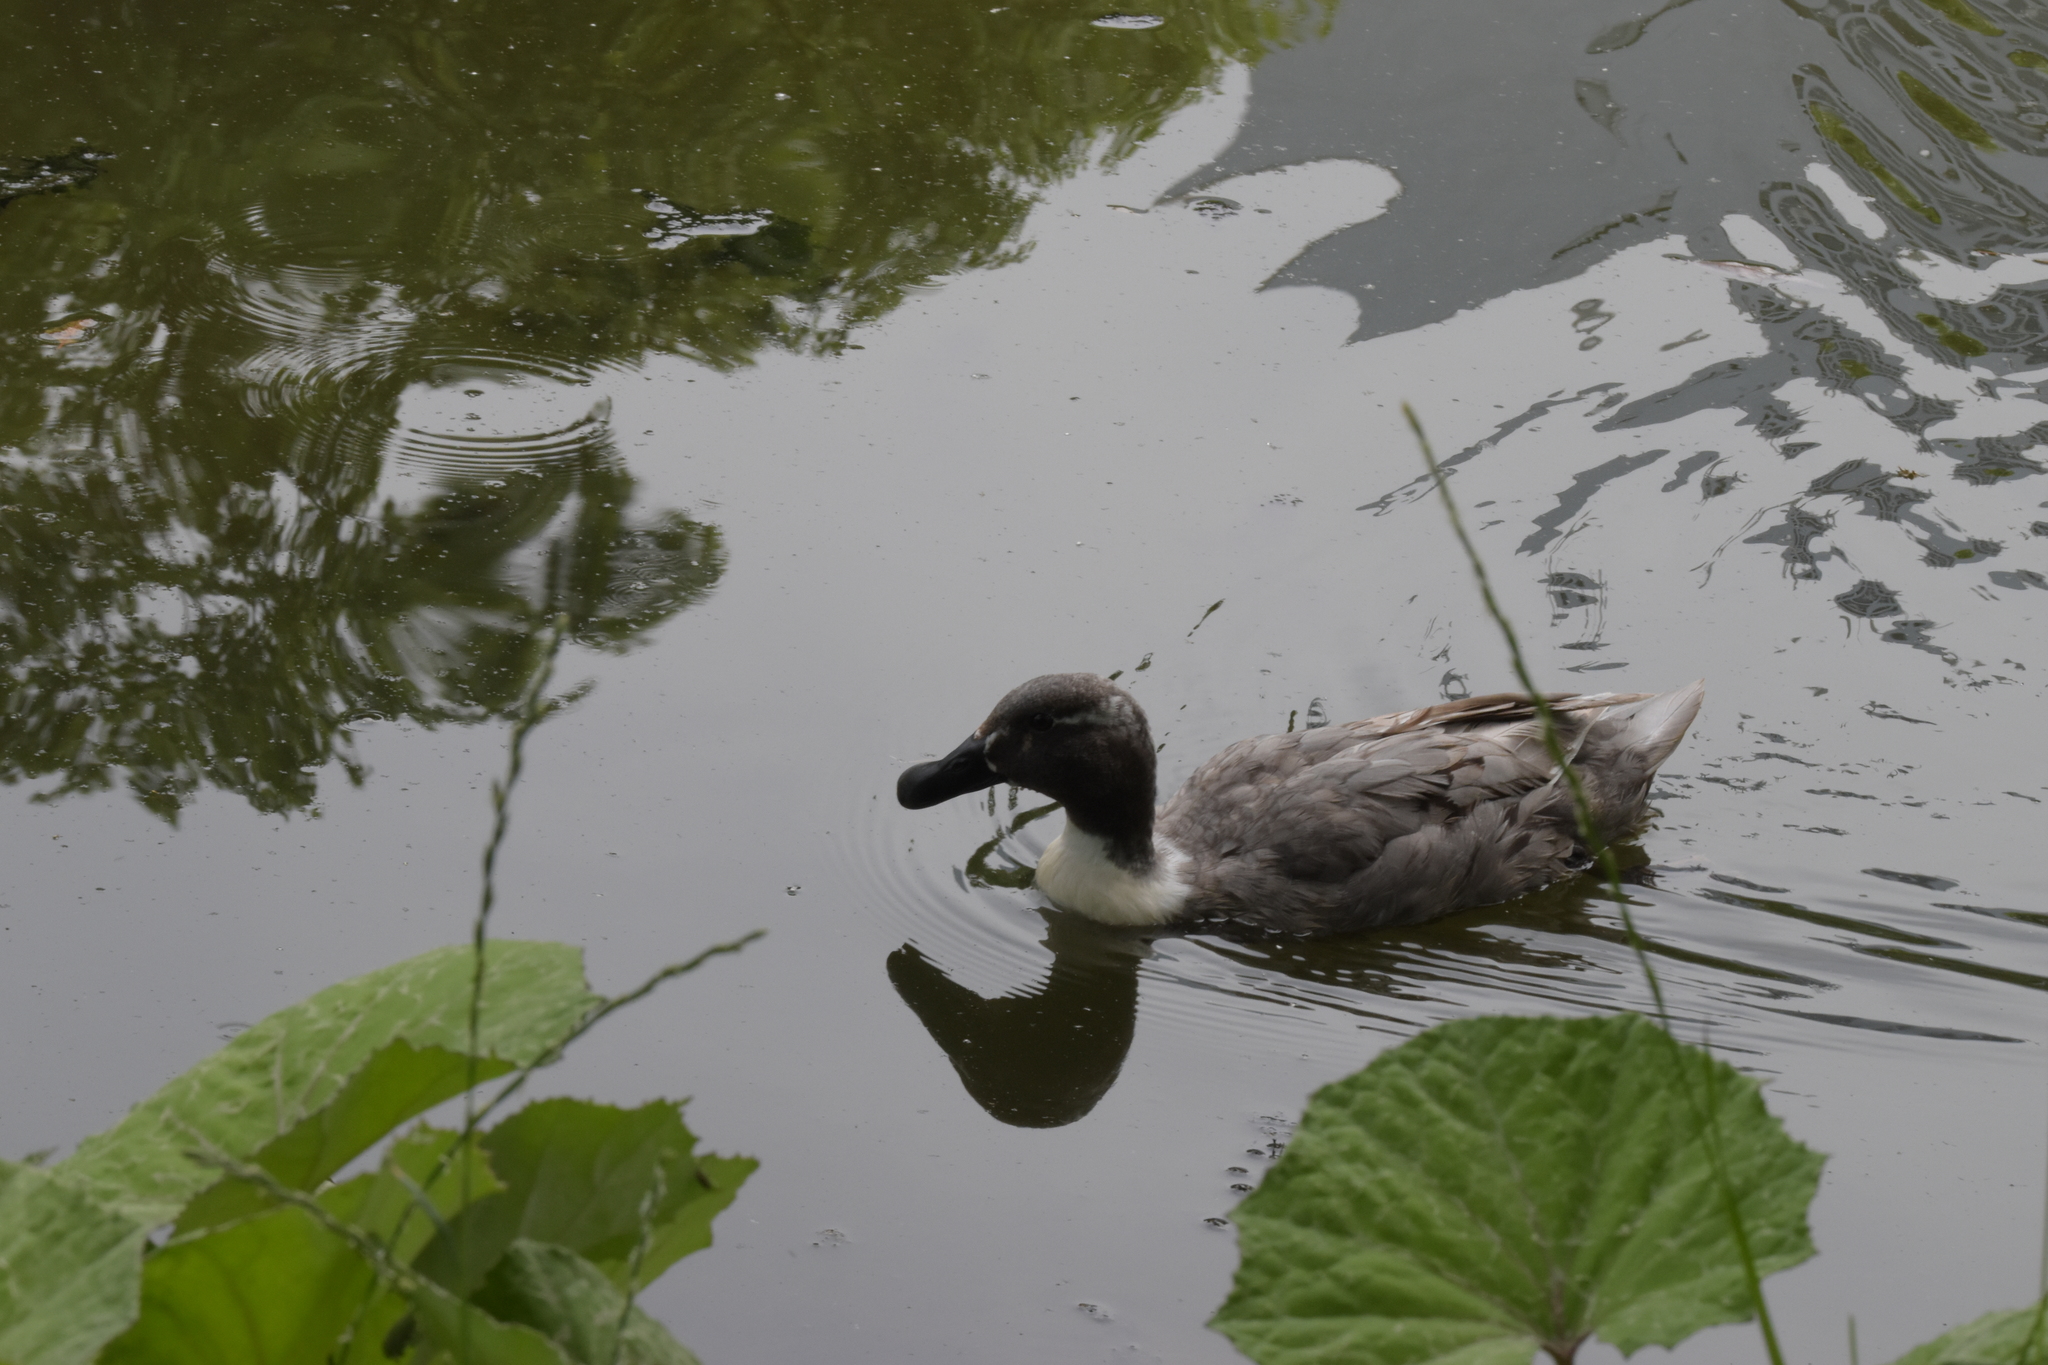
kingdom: Animalia
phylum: Chordata
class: Aves
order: Anseriformes
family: Anatidae
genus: Anas
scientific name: Anas platyrhynchos
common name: Mallard
